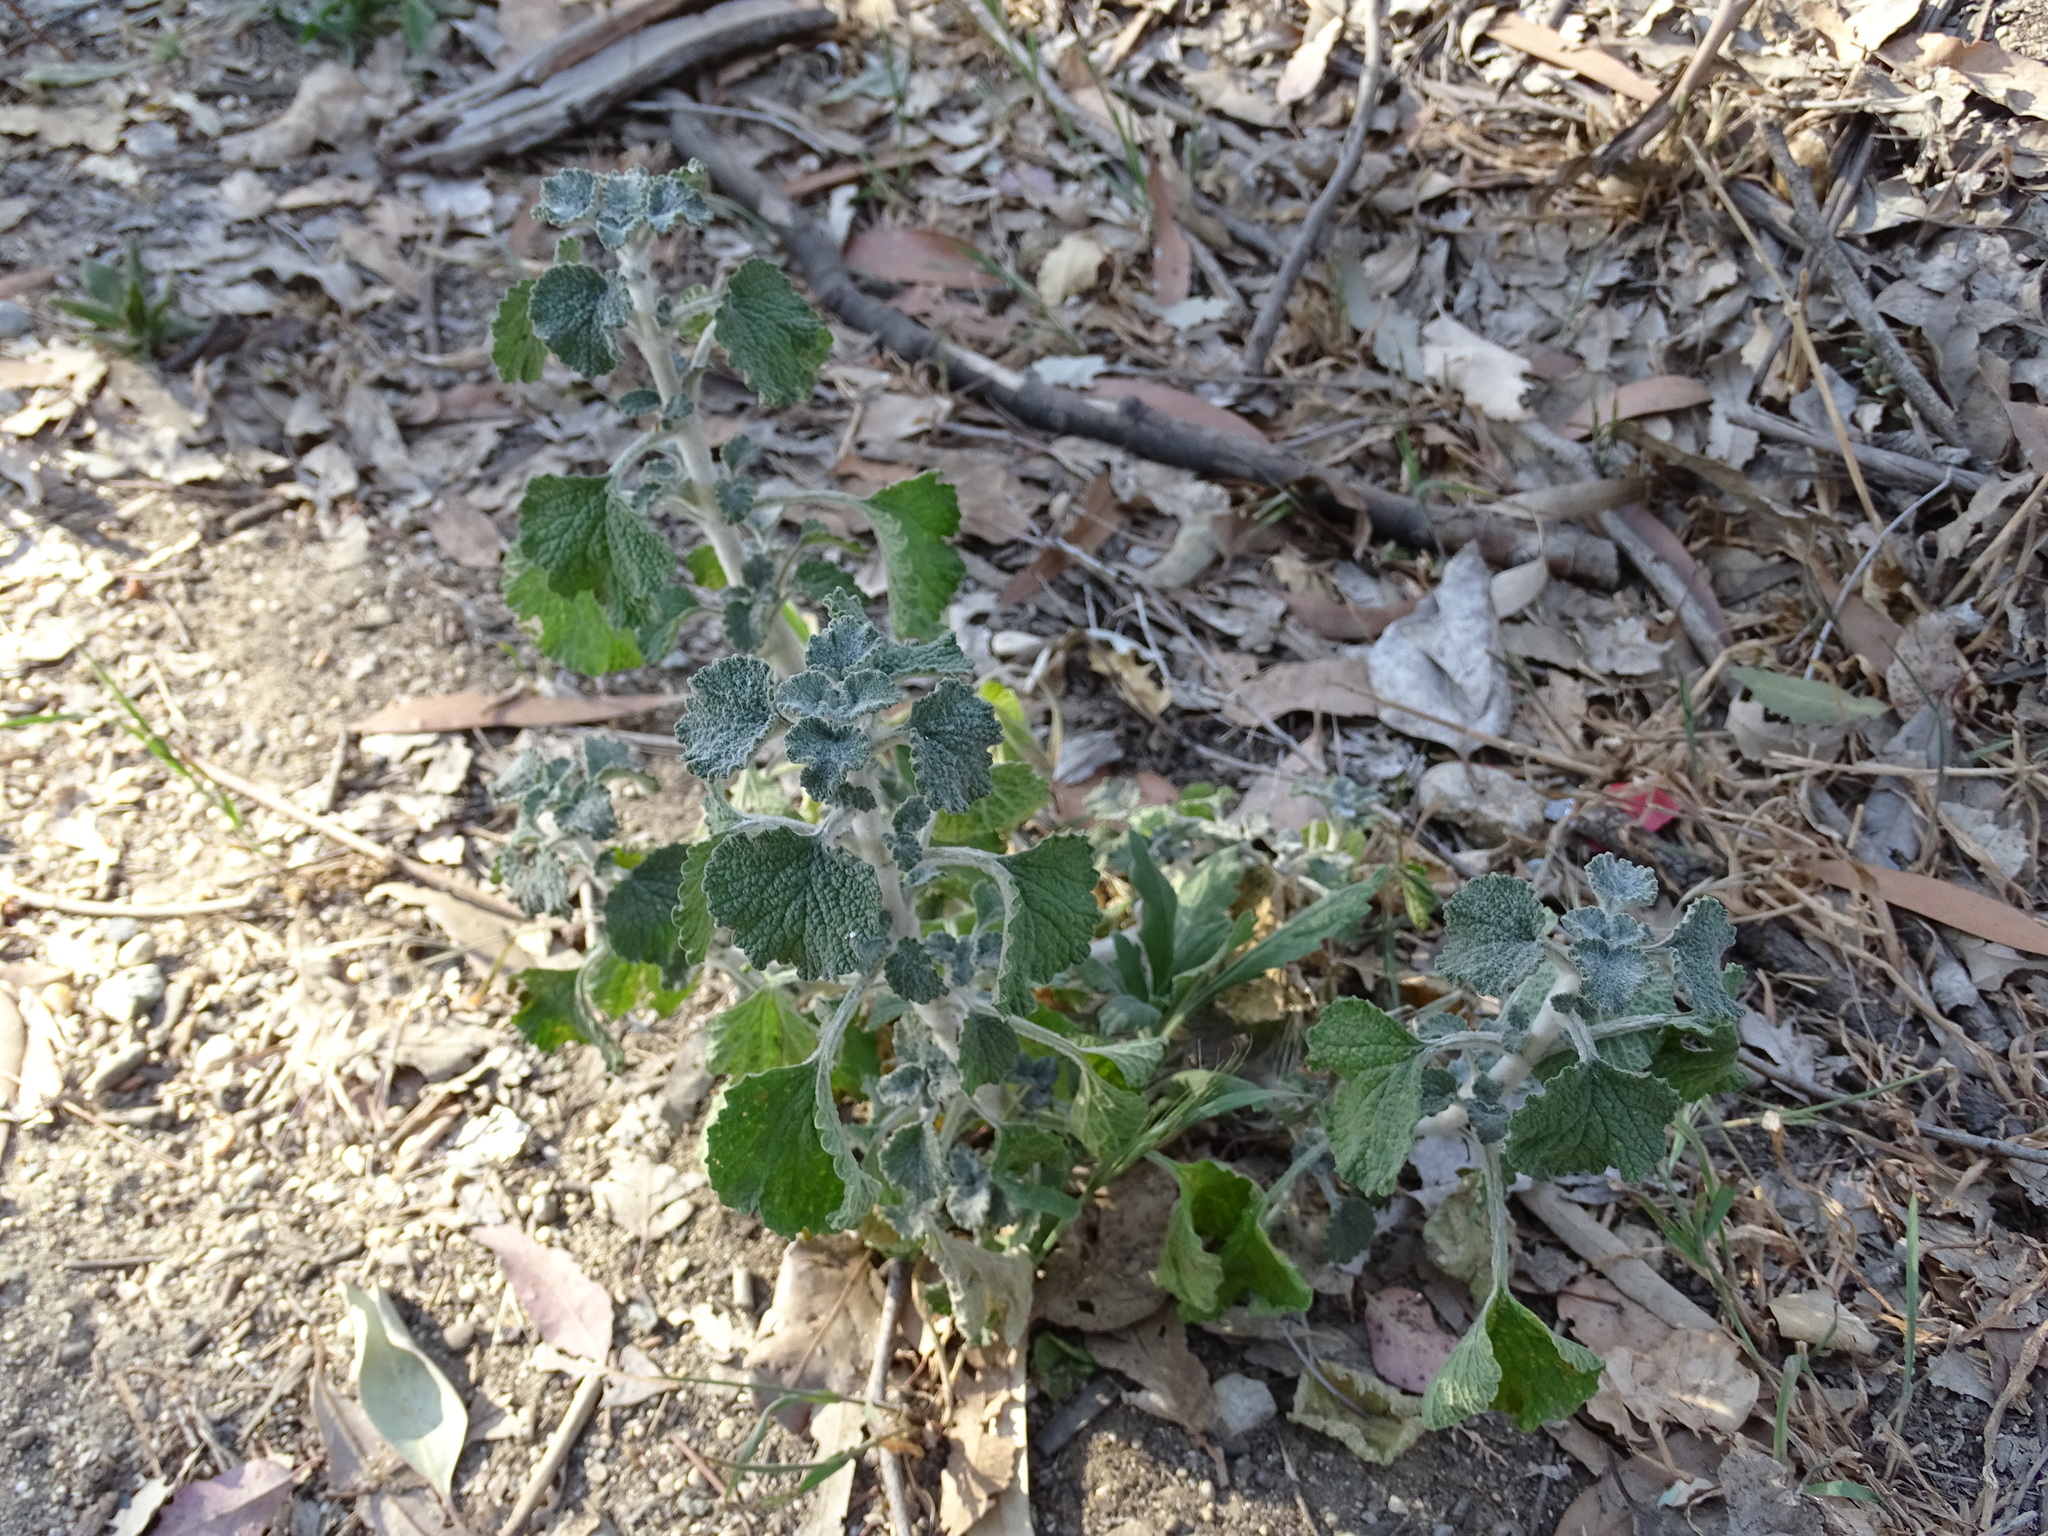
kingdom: Plantae
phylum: Tracheophyta
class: Magnoliopsida
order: Lamiales
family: Lamiaceae
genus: Marrubium
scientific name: Marrubium vulgare
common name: Horehound
